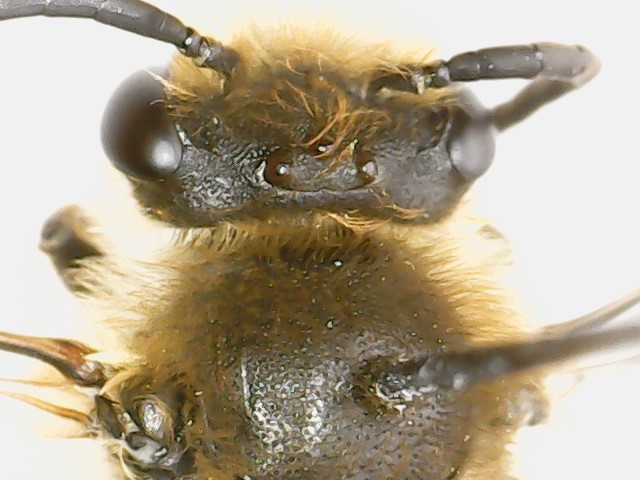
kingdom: Animalia
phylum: Arthropoda
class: Insecta
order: Hymenoptera
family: Colletidae
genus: Colletes
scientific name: Colletes inaequalis
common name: Unequal cellophane bee
